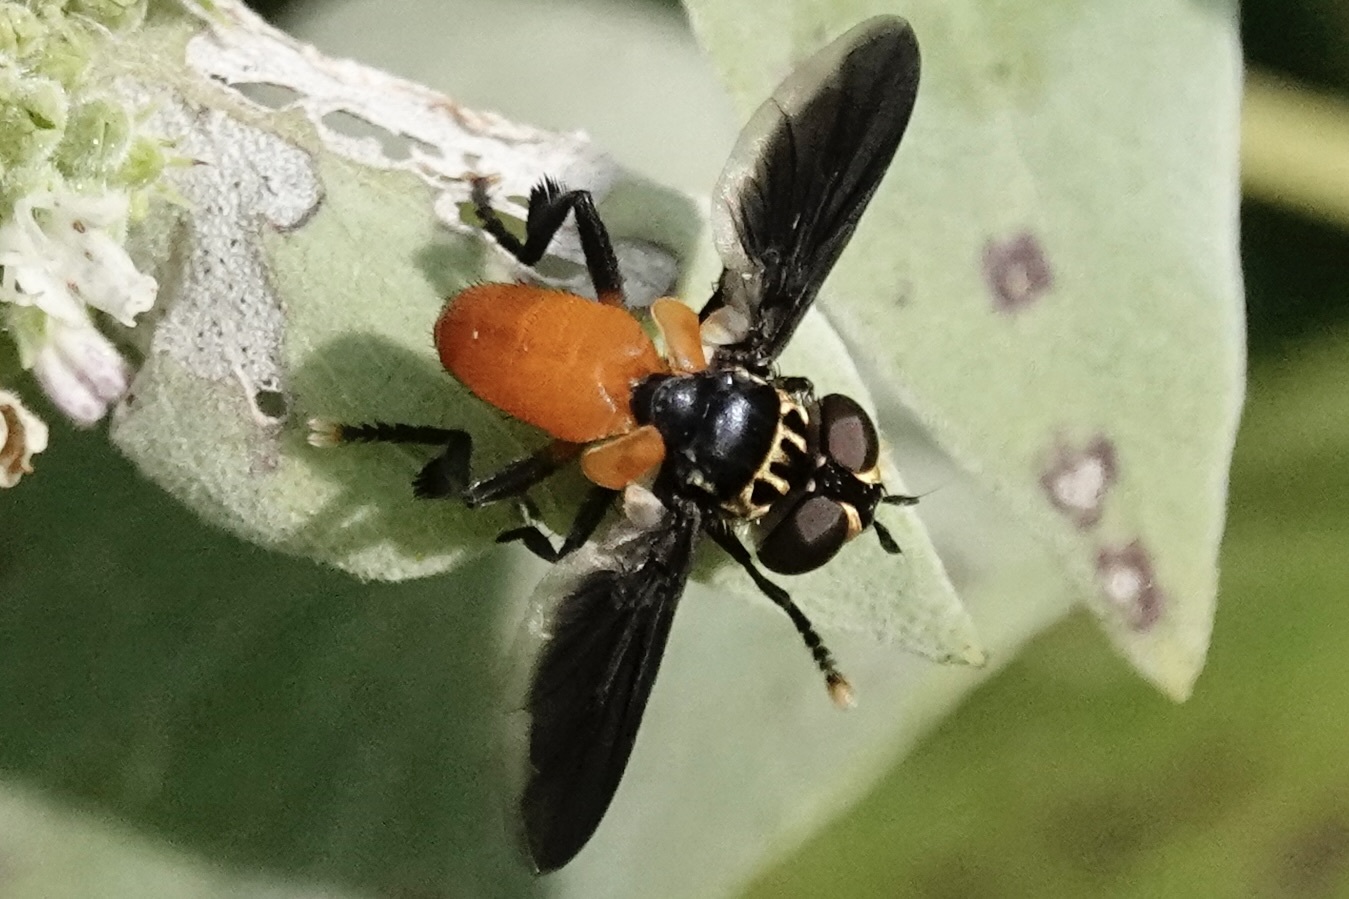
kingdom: Animalia
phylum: Arthropoda
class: Insecta
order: Diptera
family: Tachinidae
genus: Trichopoda
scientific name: Trichopoda pennipes
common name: Tachinid fly
